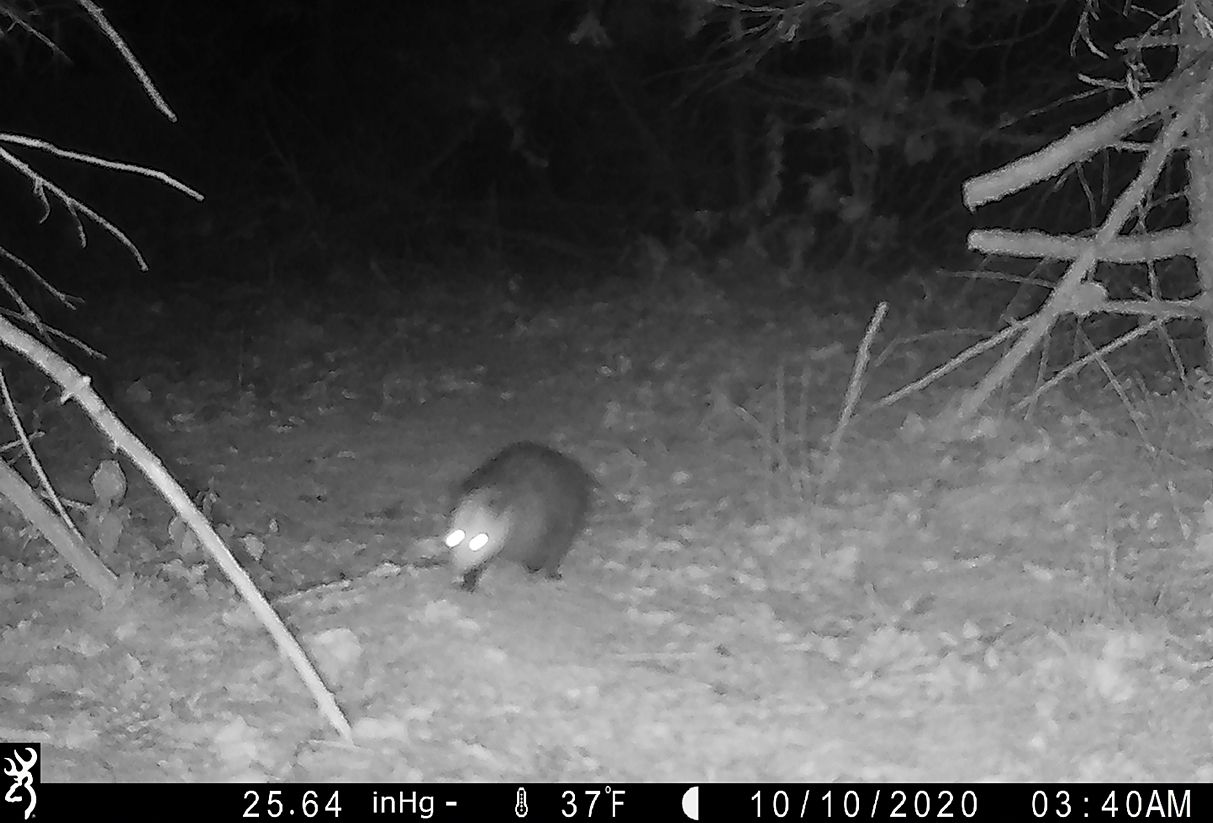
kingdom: Animalia
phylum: Chordata
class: Mammalia
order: Didelphimorphia
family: Didelphidae
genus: Didelphis
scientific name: Didelphis virginiana
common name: Virginia opossum
